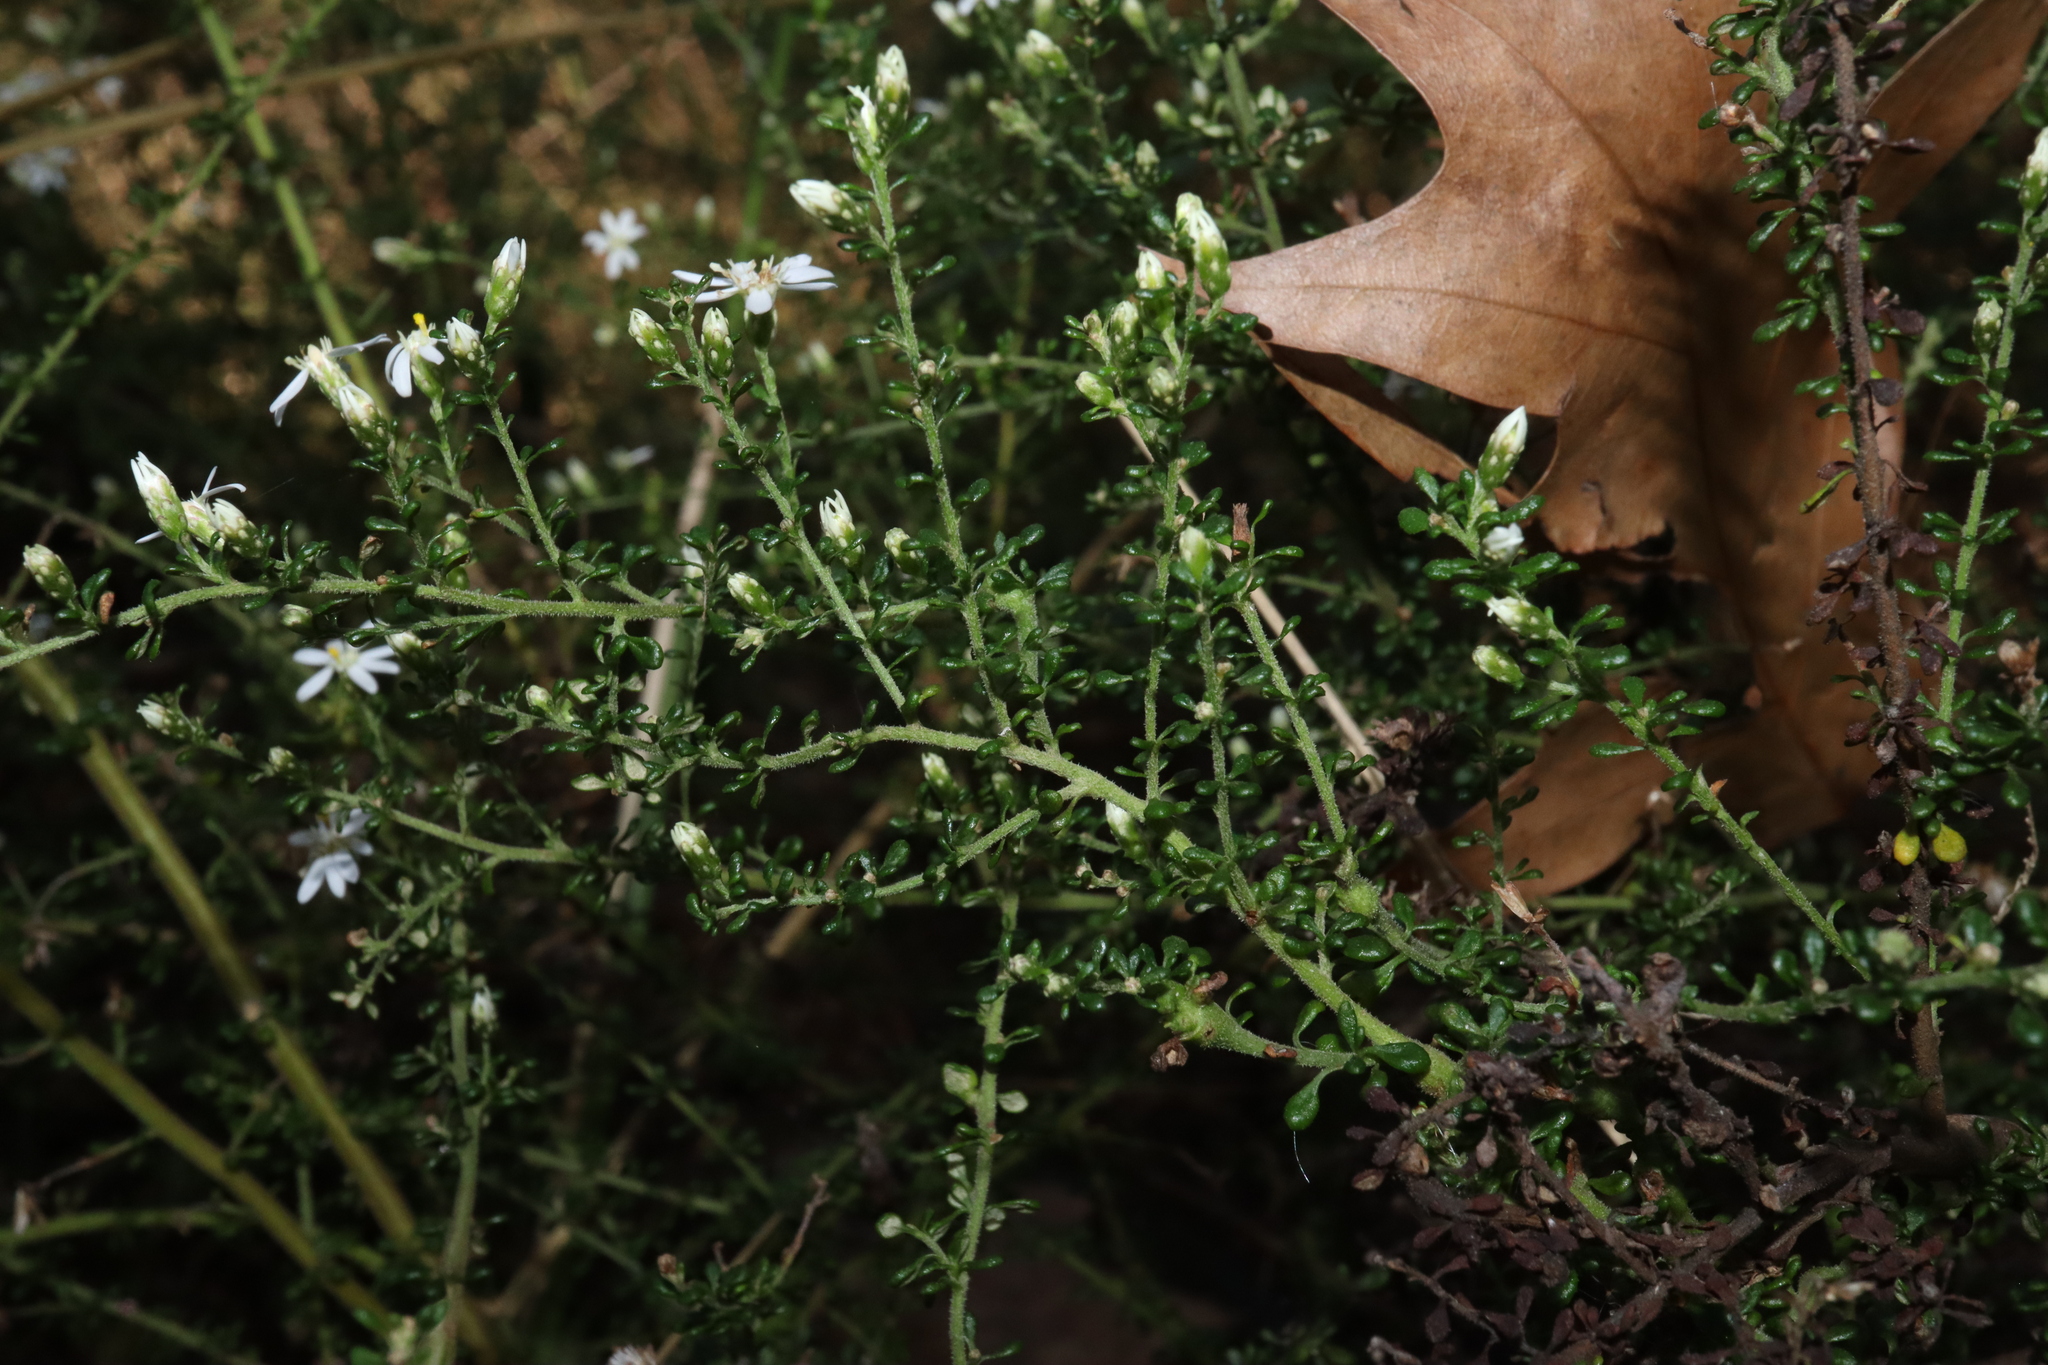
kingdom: Plantae
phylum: Tracheophyta
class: Magnoliopsida
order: Asterales
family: Asteraceae
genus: Olearia
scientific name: Olearia microphylla
